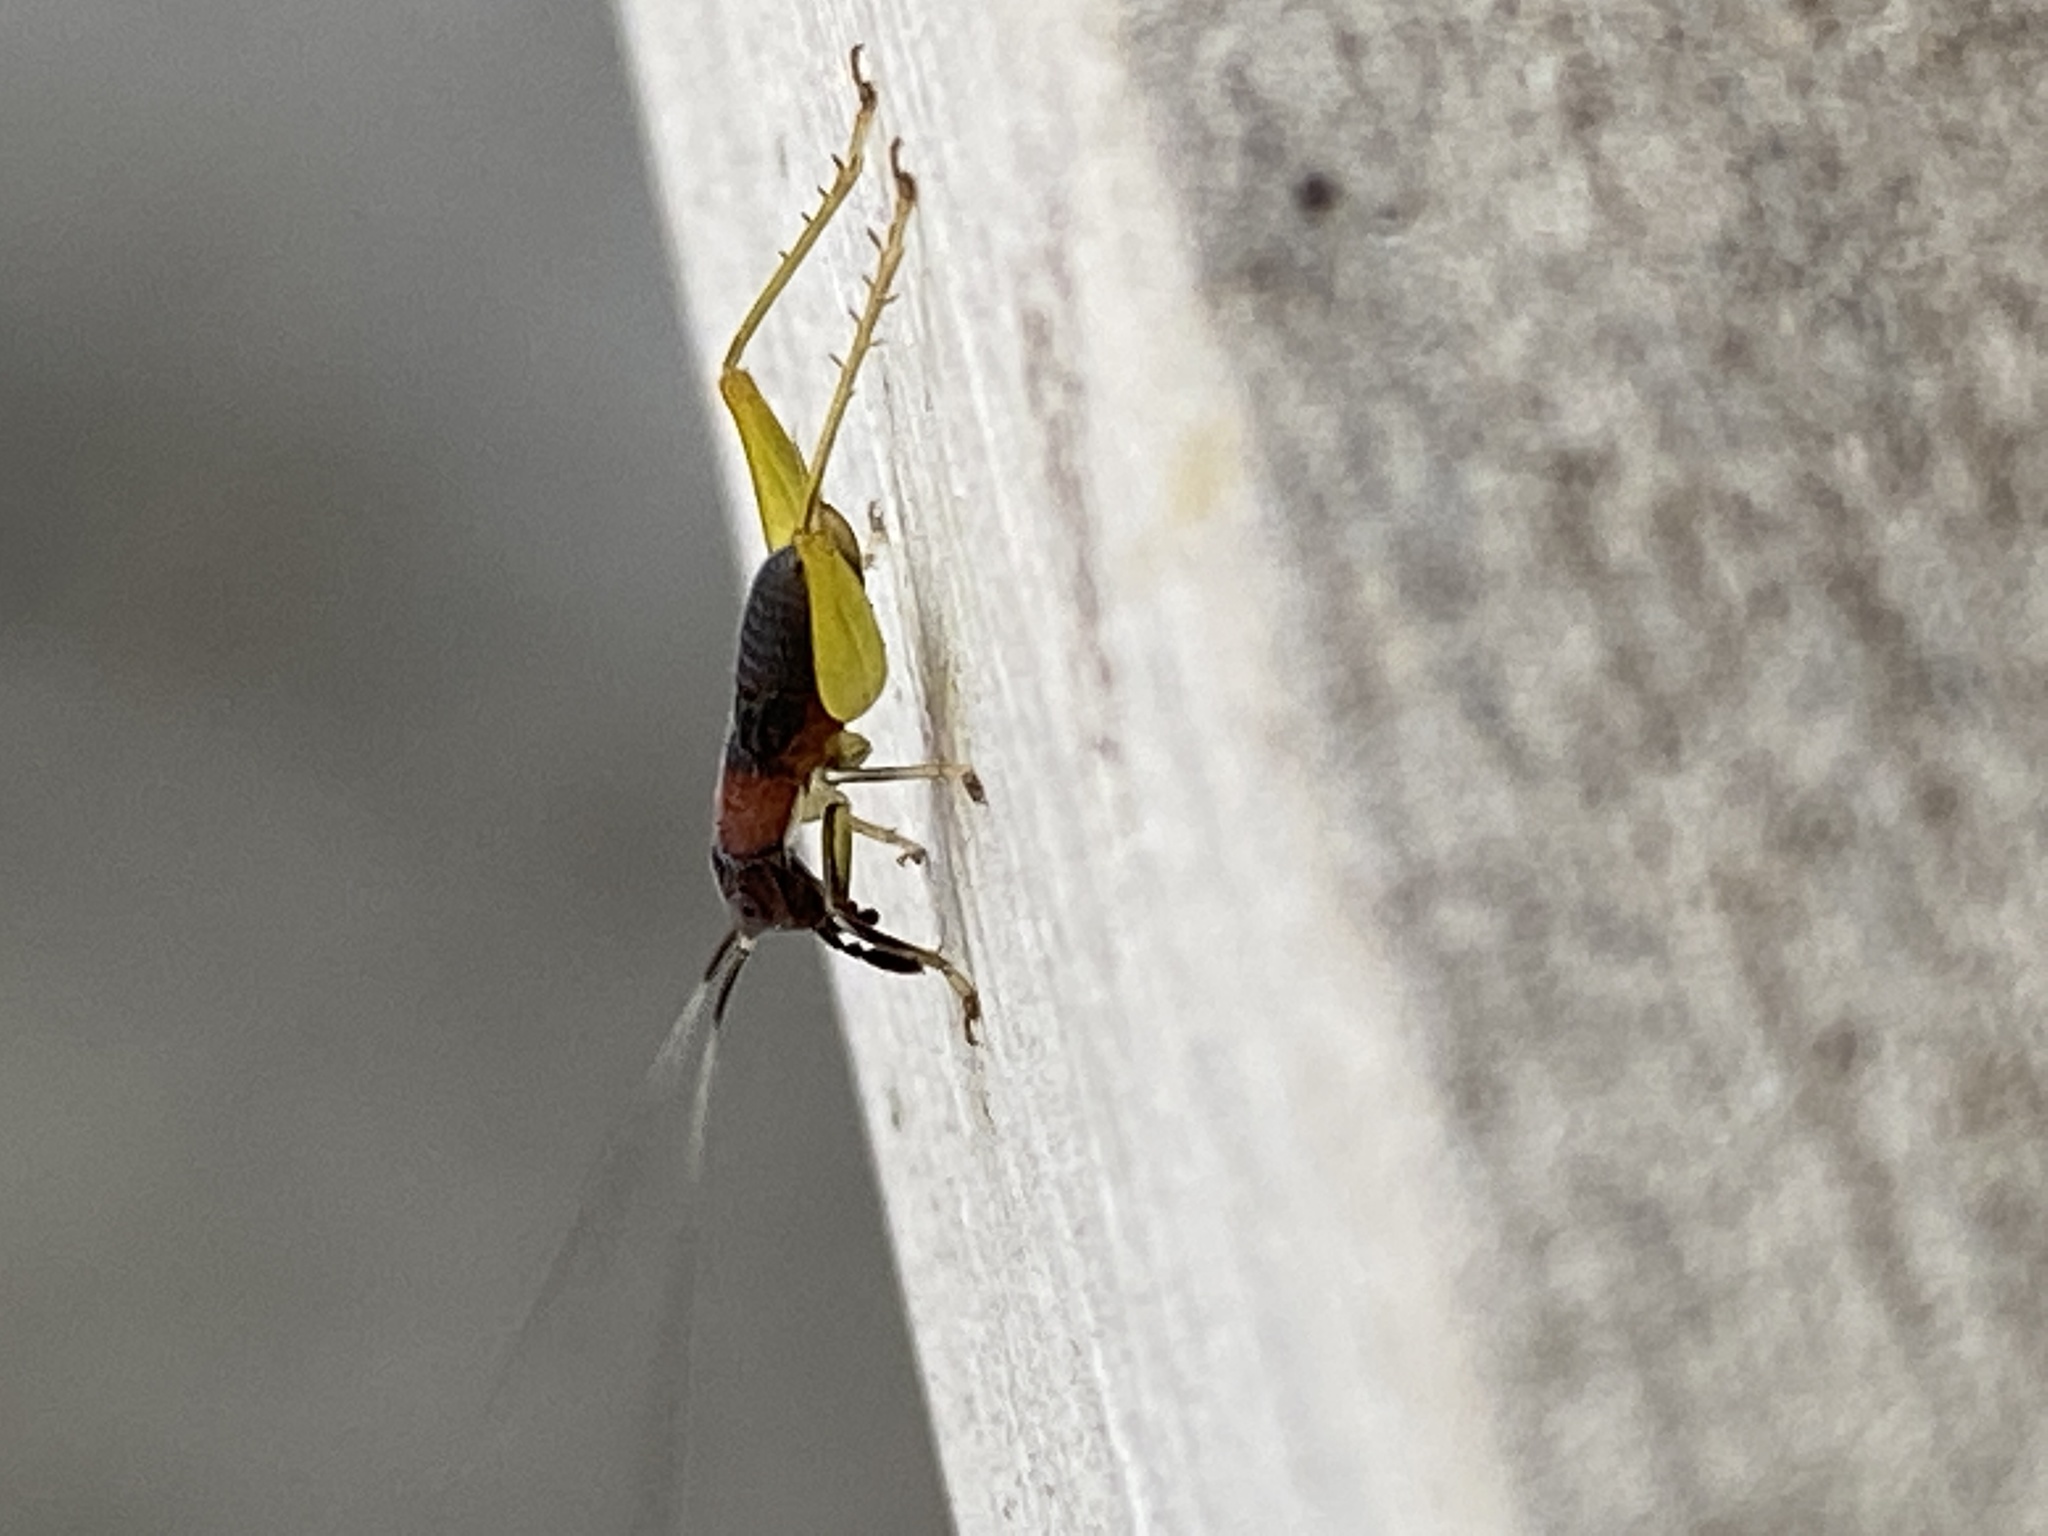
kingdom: Animalia
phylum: Arthropoda
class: Insecta
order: Orthoptera
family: Trigonidiidae
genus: Phyllopalpus
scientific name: Phyllopalpus pulchellus
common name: Handsome trig
